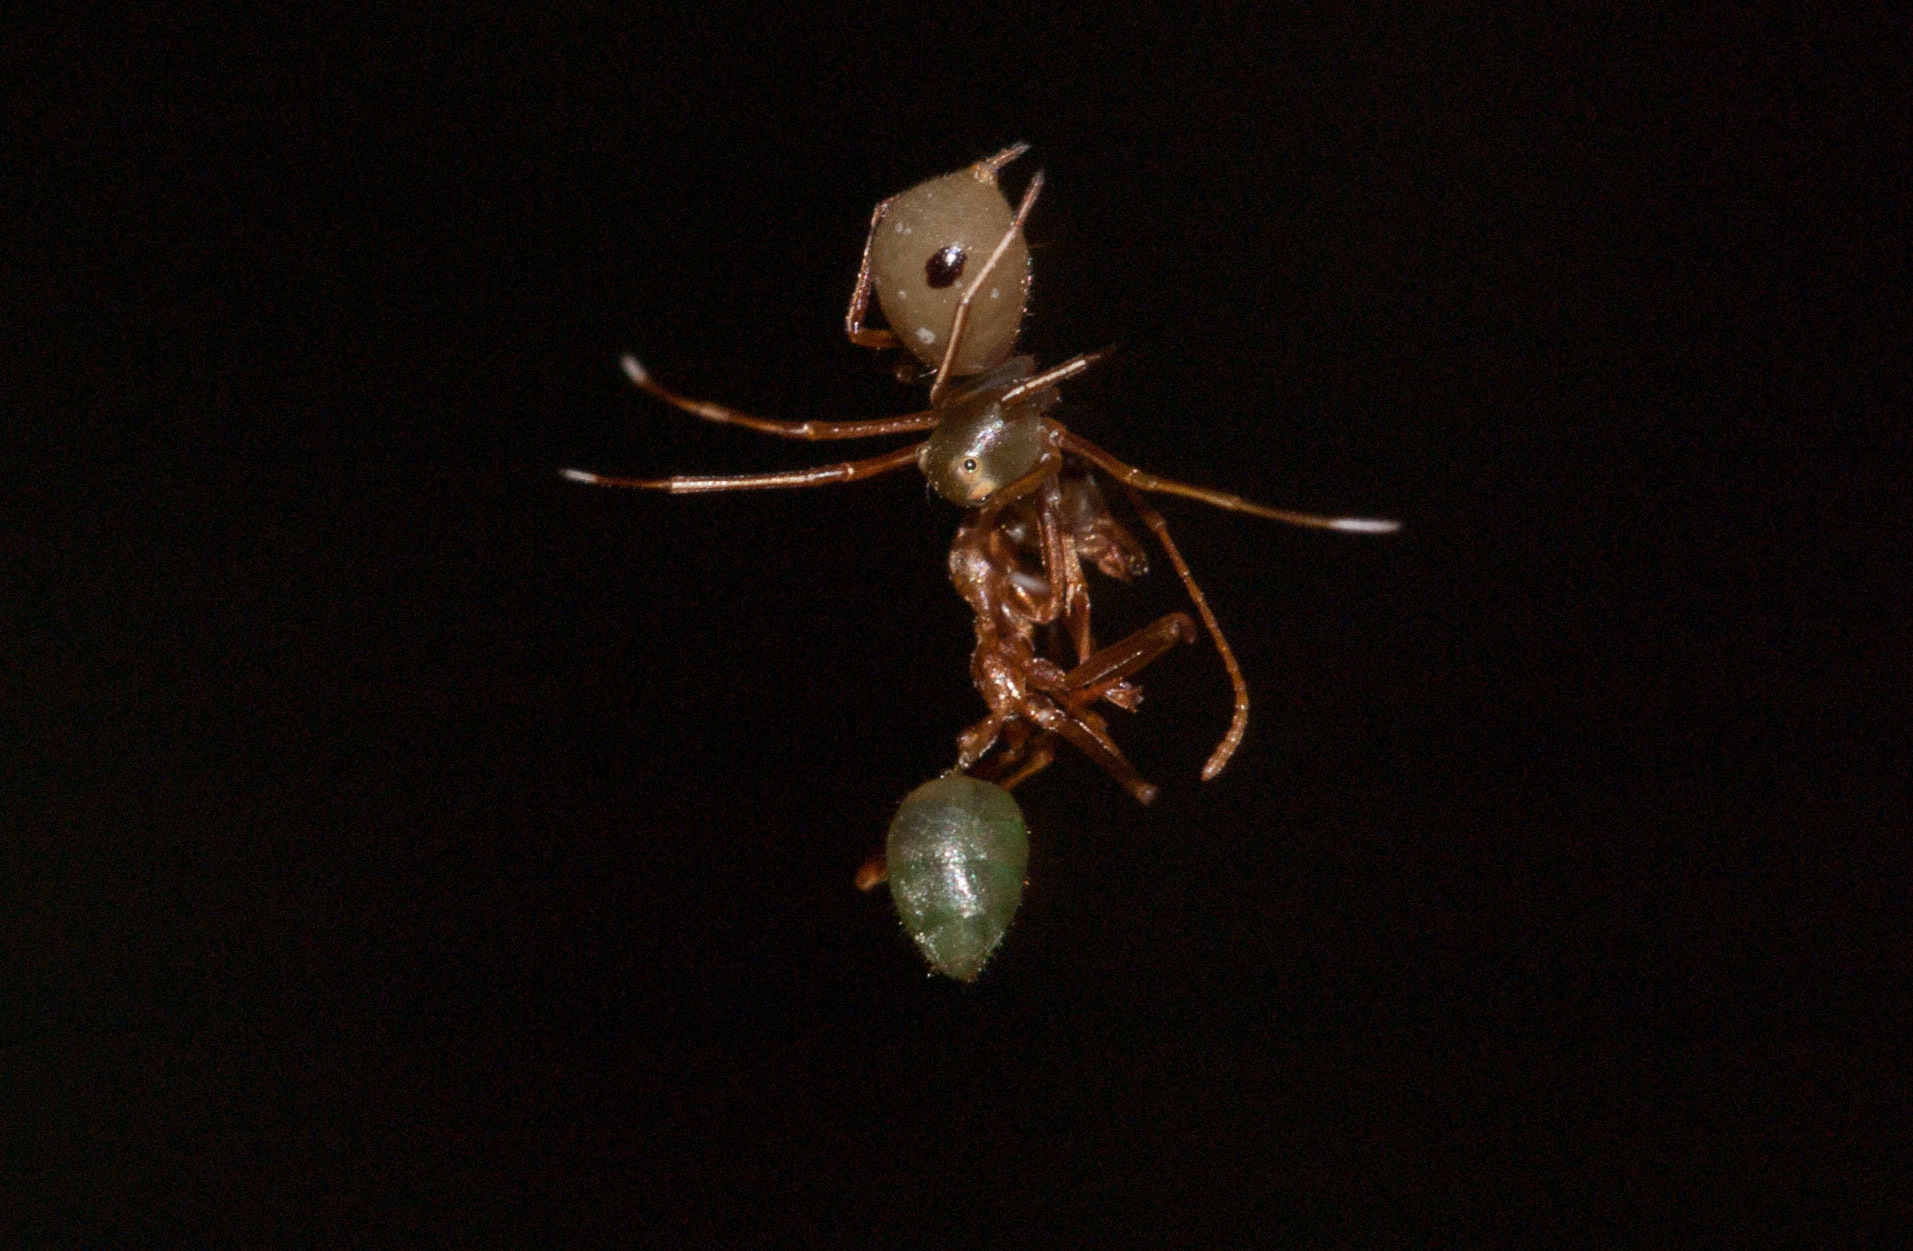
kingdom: Animalia
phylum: Arthropoda
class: Arachnida
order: Araneae
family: Thomisidae
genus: Amyciaea
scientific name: Amyciaea albomaculata
